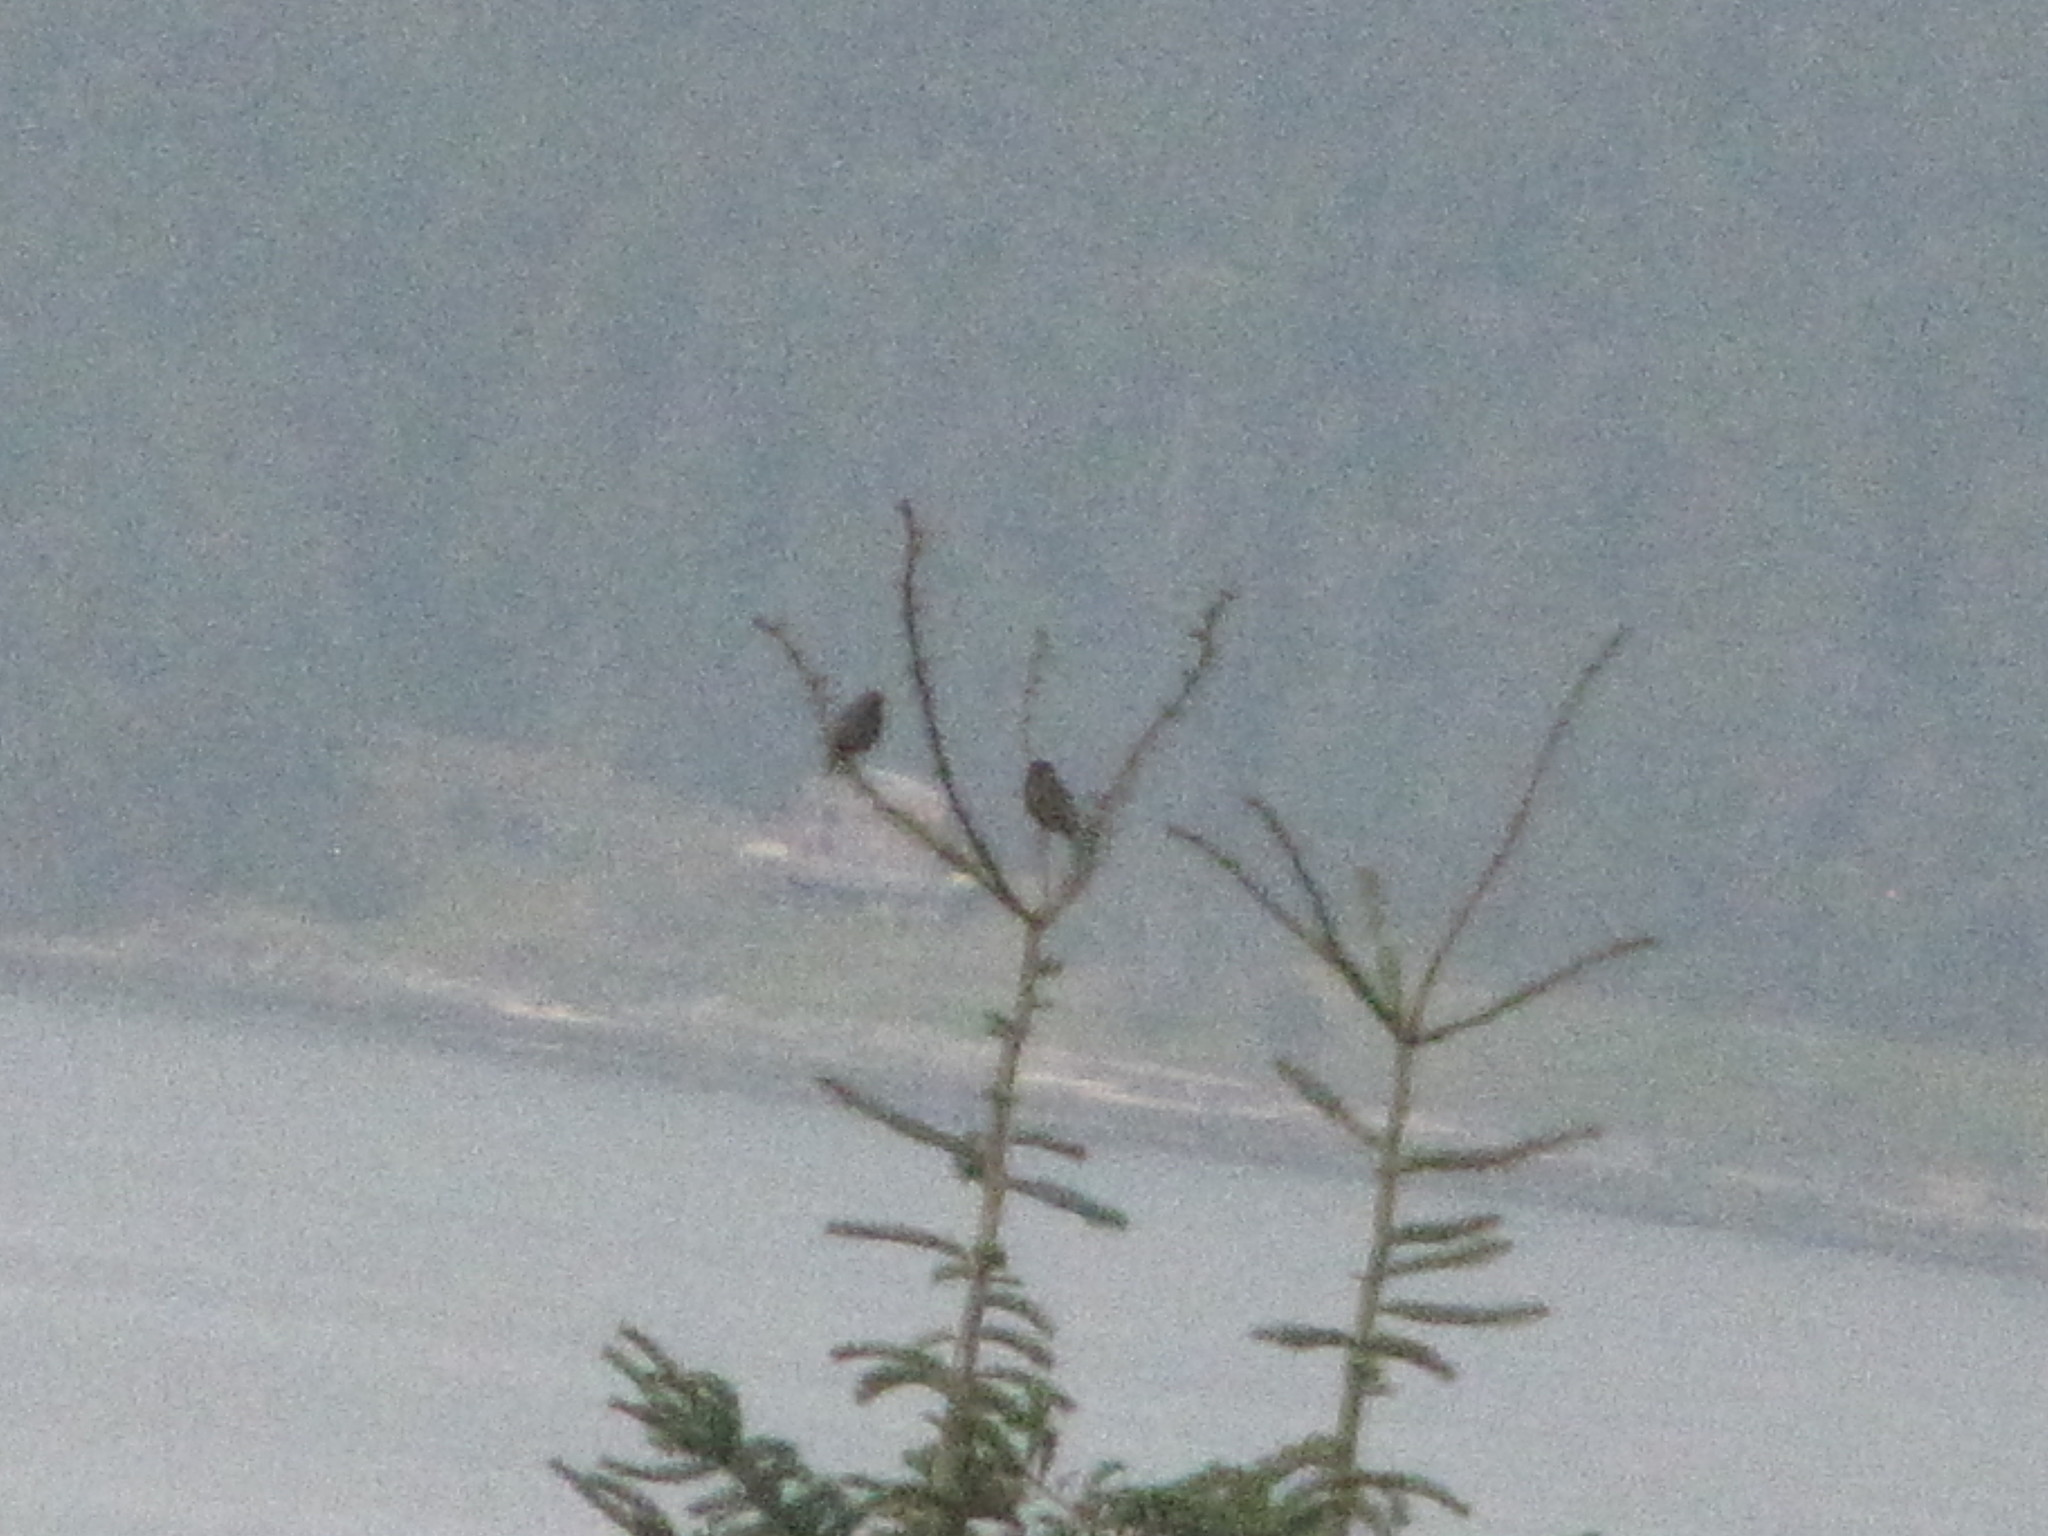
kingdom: Animalia
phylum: Chordata
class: Aves
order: Passeriformes
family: Sturnidae
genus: Sturnus
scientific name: Sturnus vulgaris
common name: Common starling
